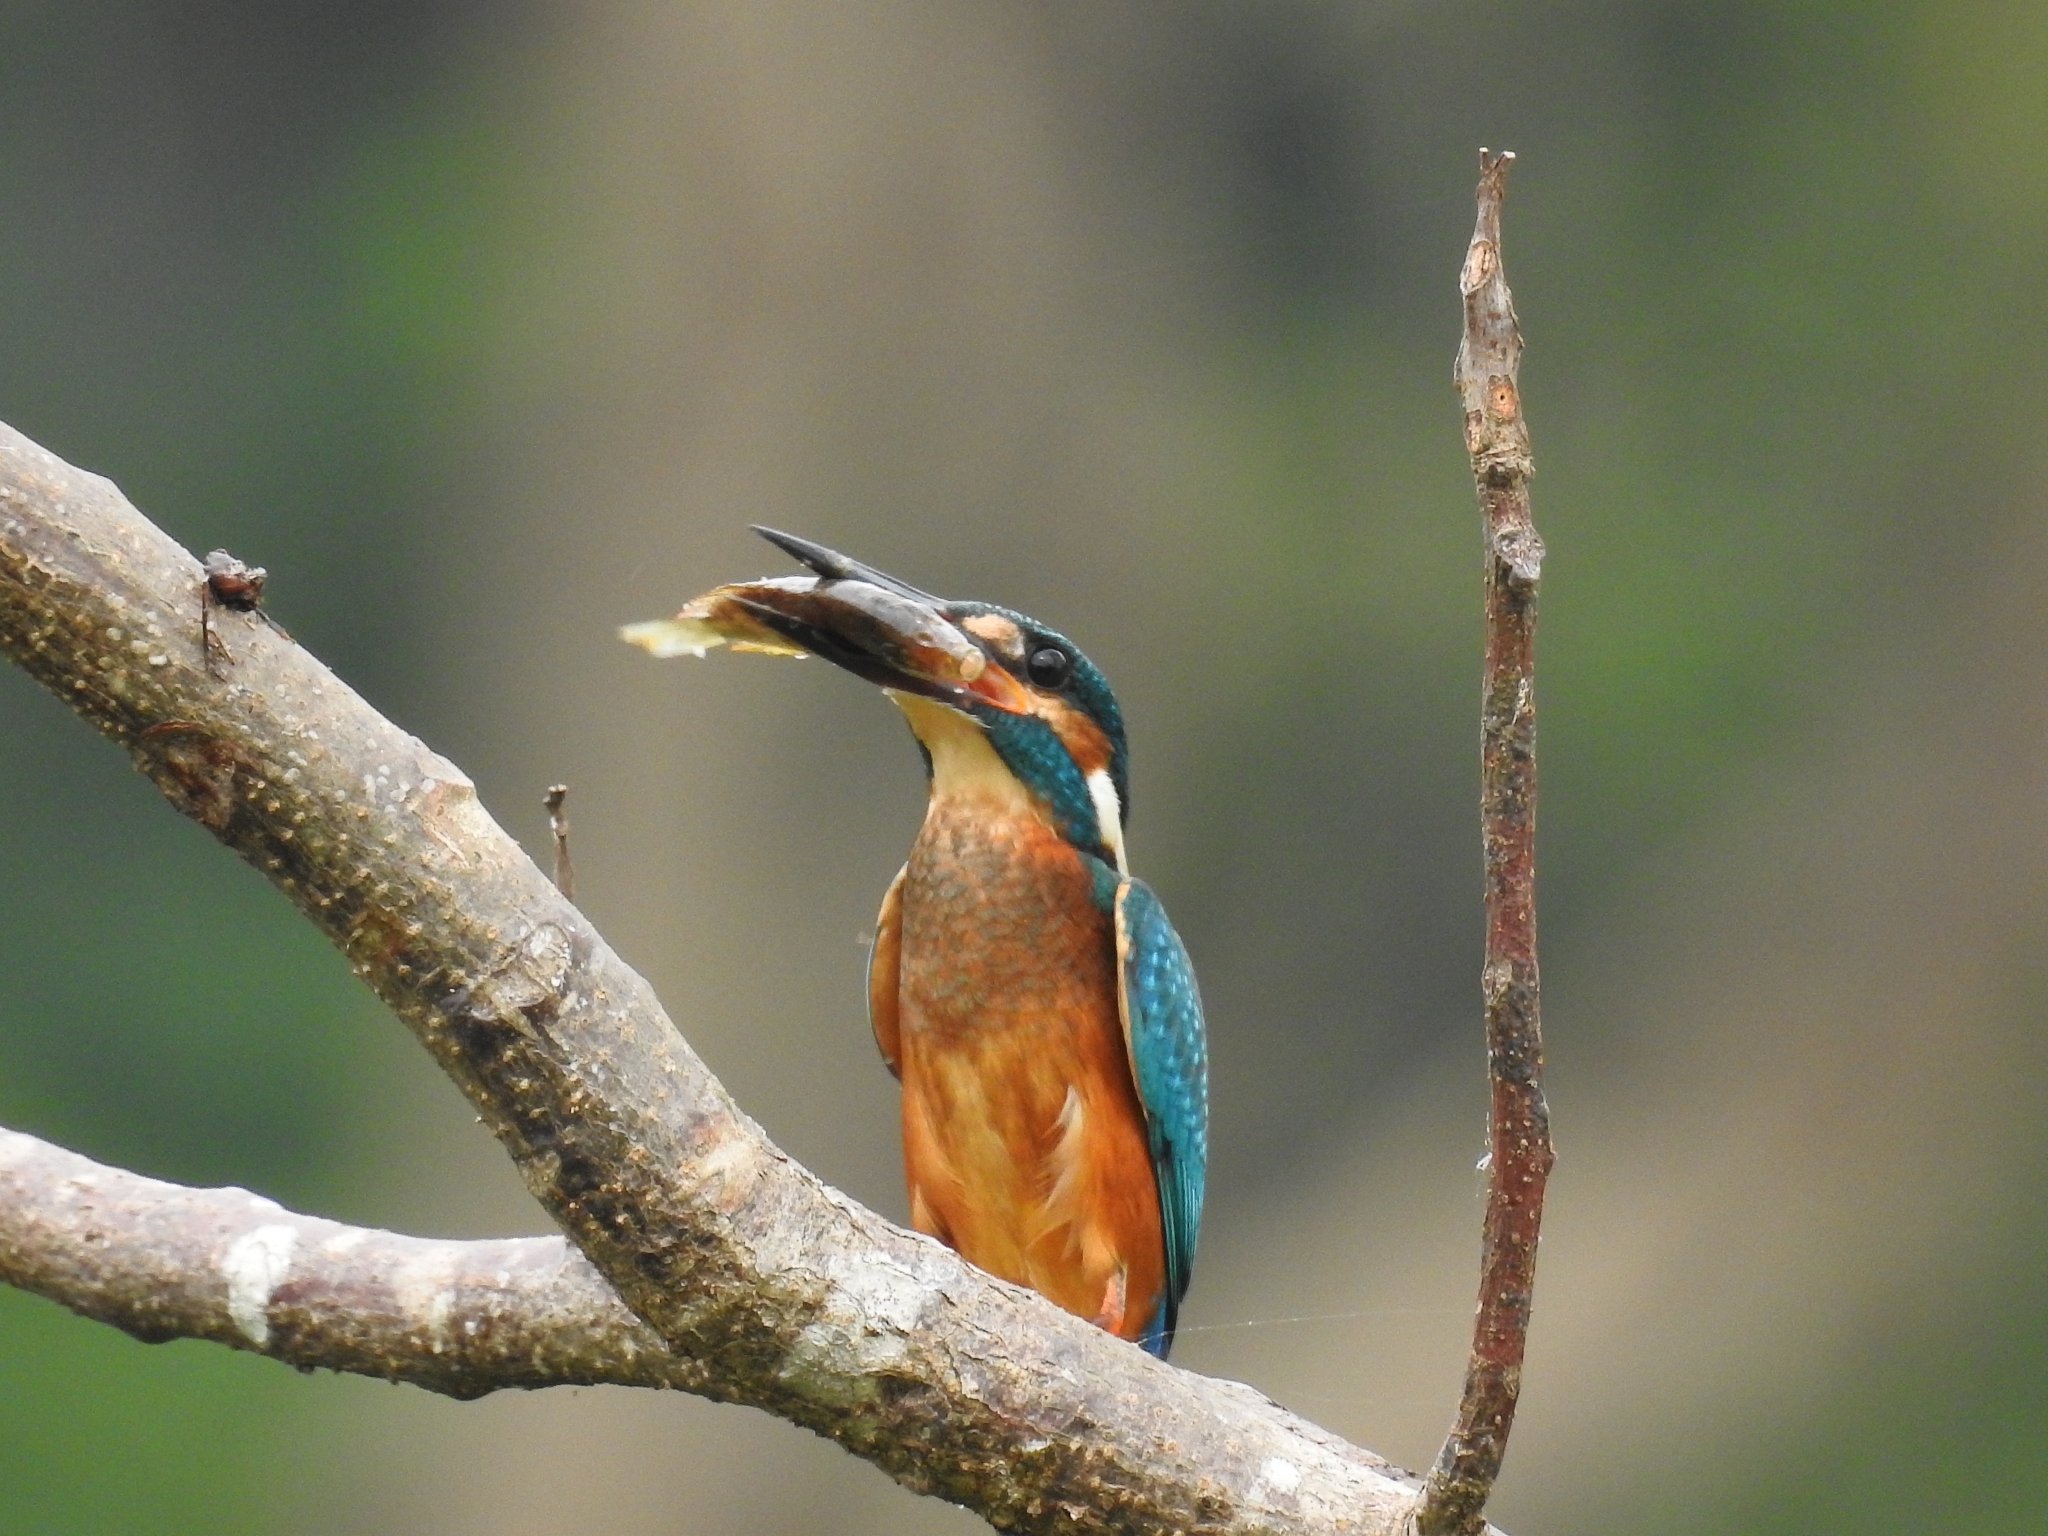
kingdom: Animalia
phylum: Chordata
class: Aves
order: Coraciiformes
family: Alcedinidae
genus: Alcedo
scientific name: Alcedo atthis
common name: Common kingfisher
